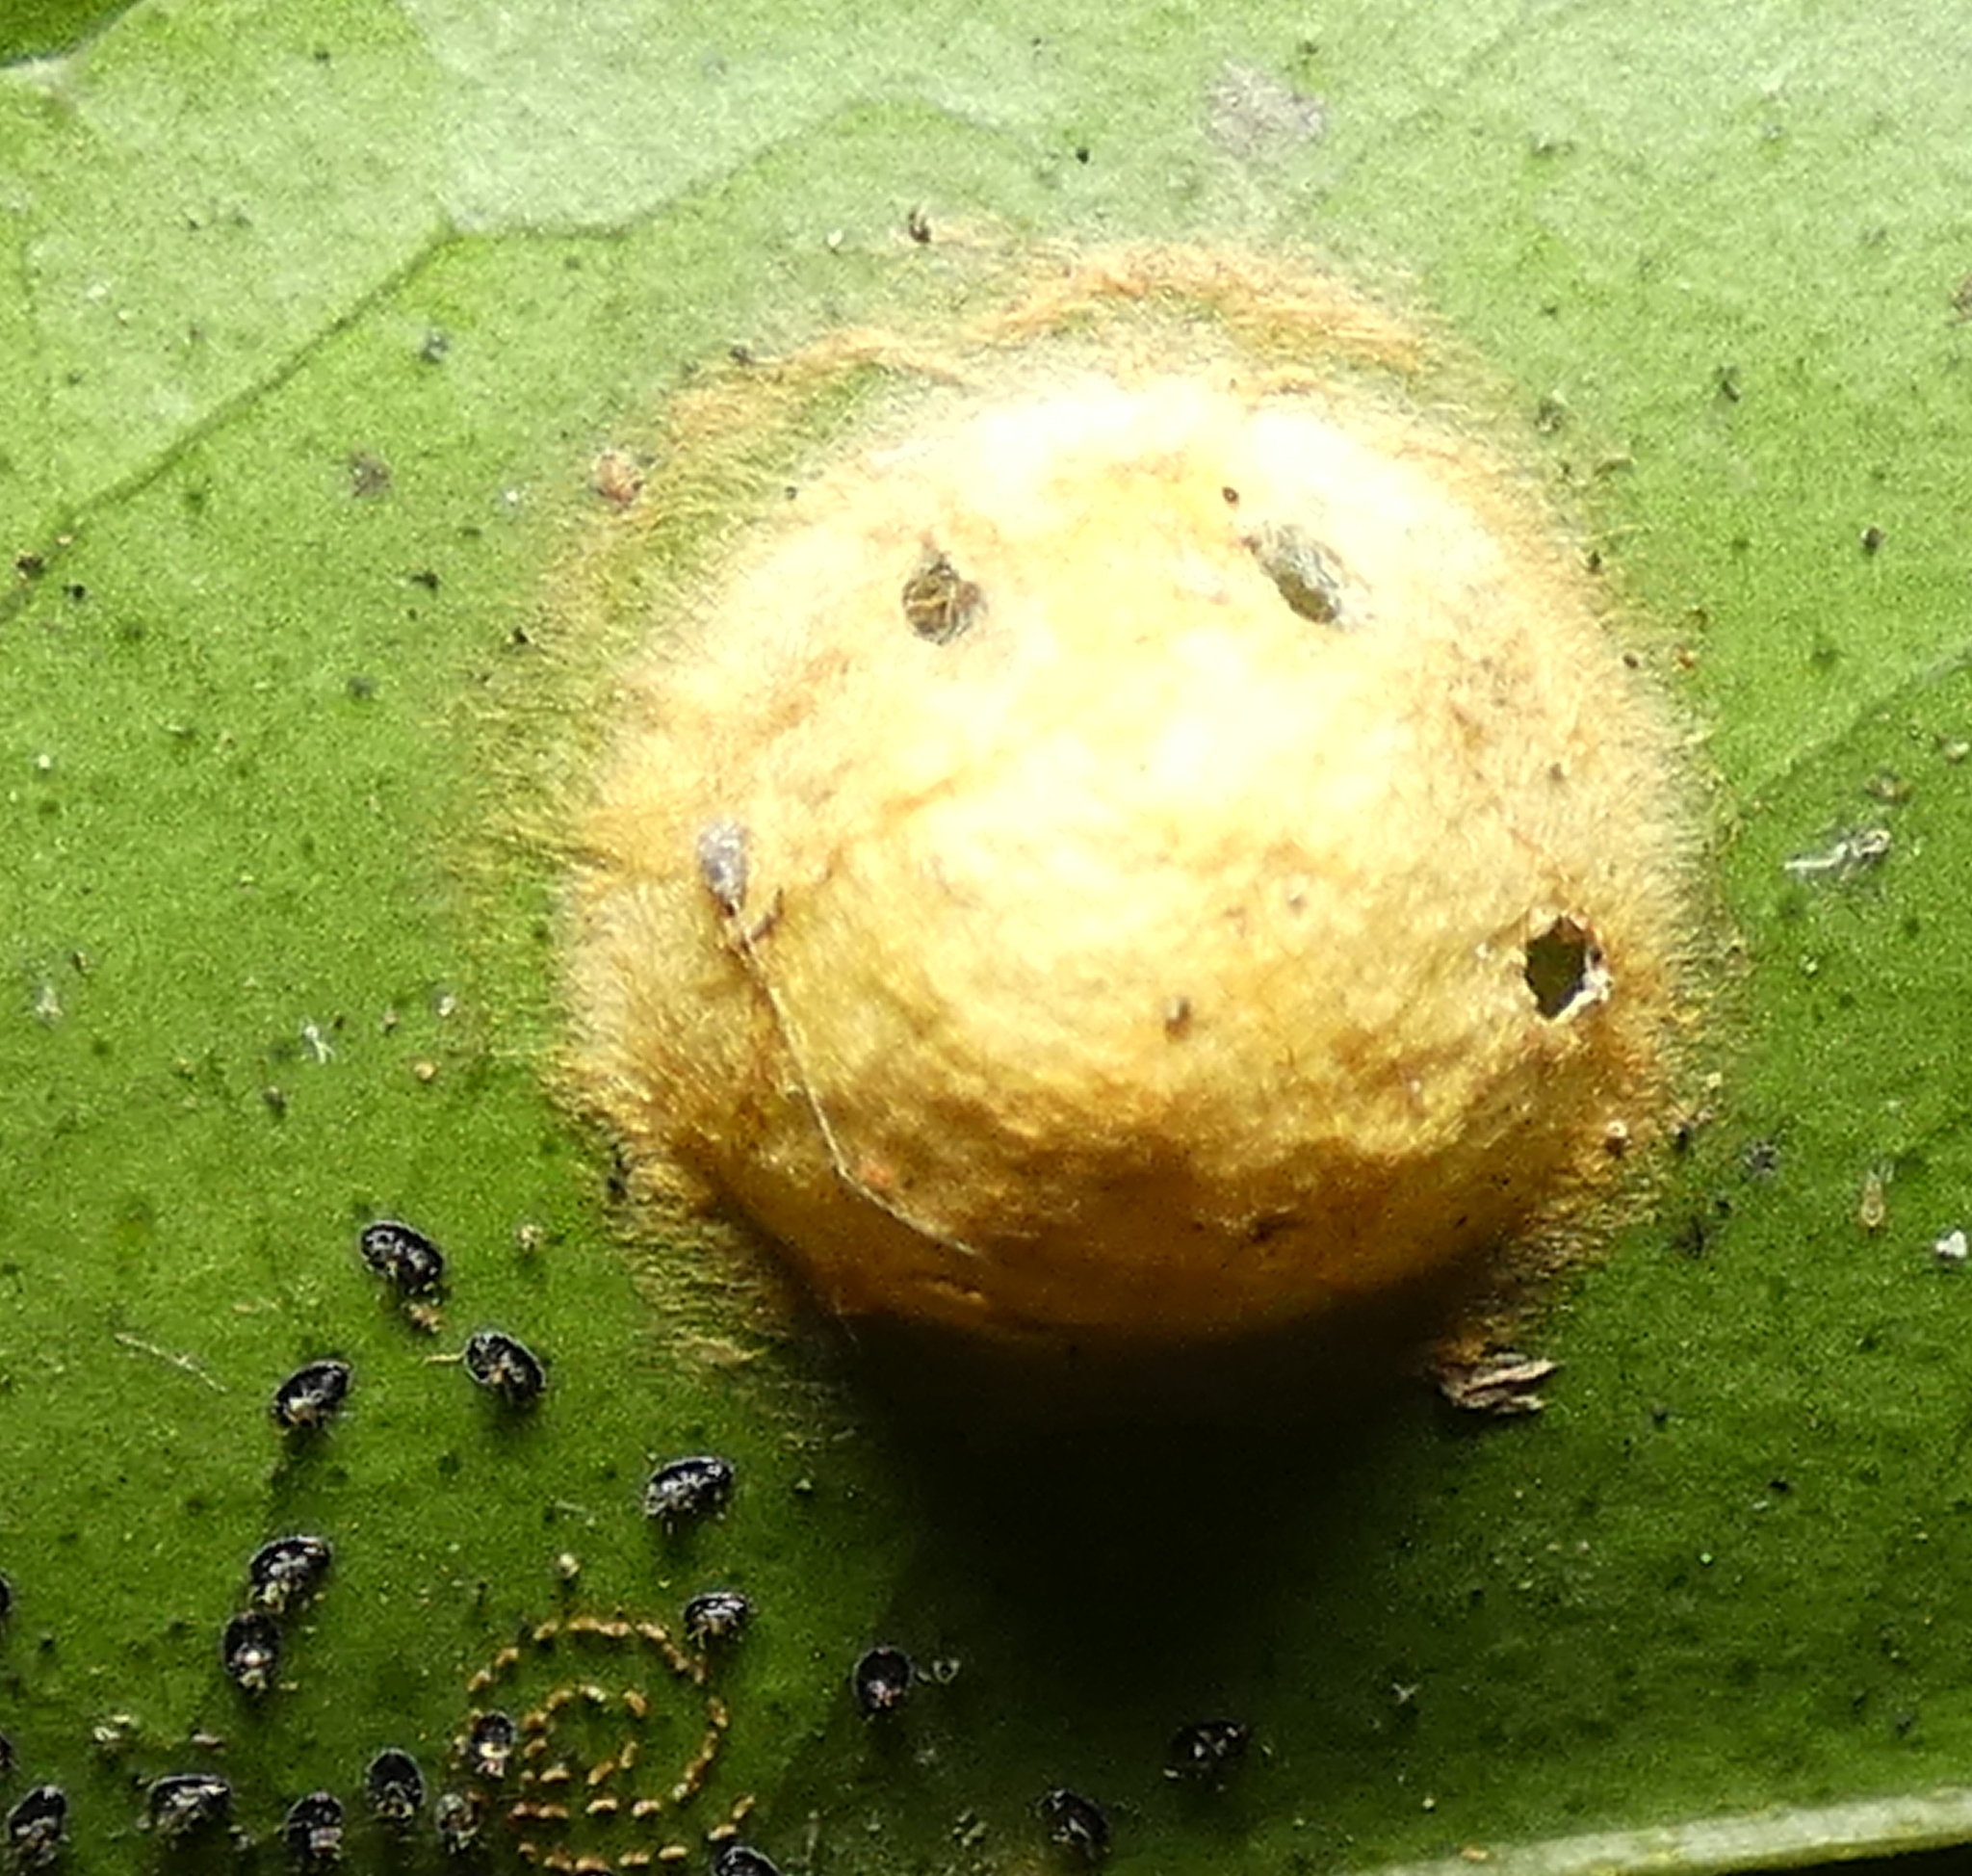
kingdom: Animalia
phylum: Arthropoda
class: Arachnida
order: Araneae
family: Araneidae
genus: Alpaida
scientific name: Alpaida bicornuta
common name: Orb weavers
